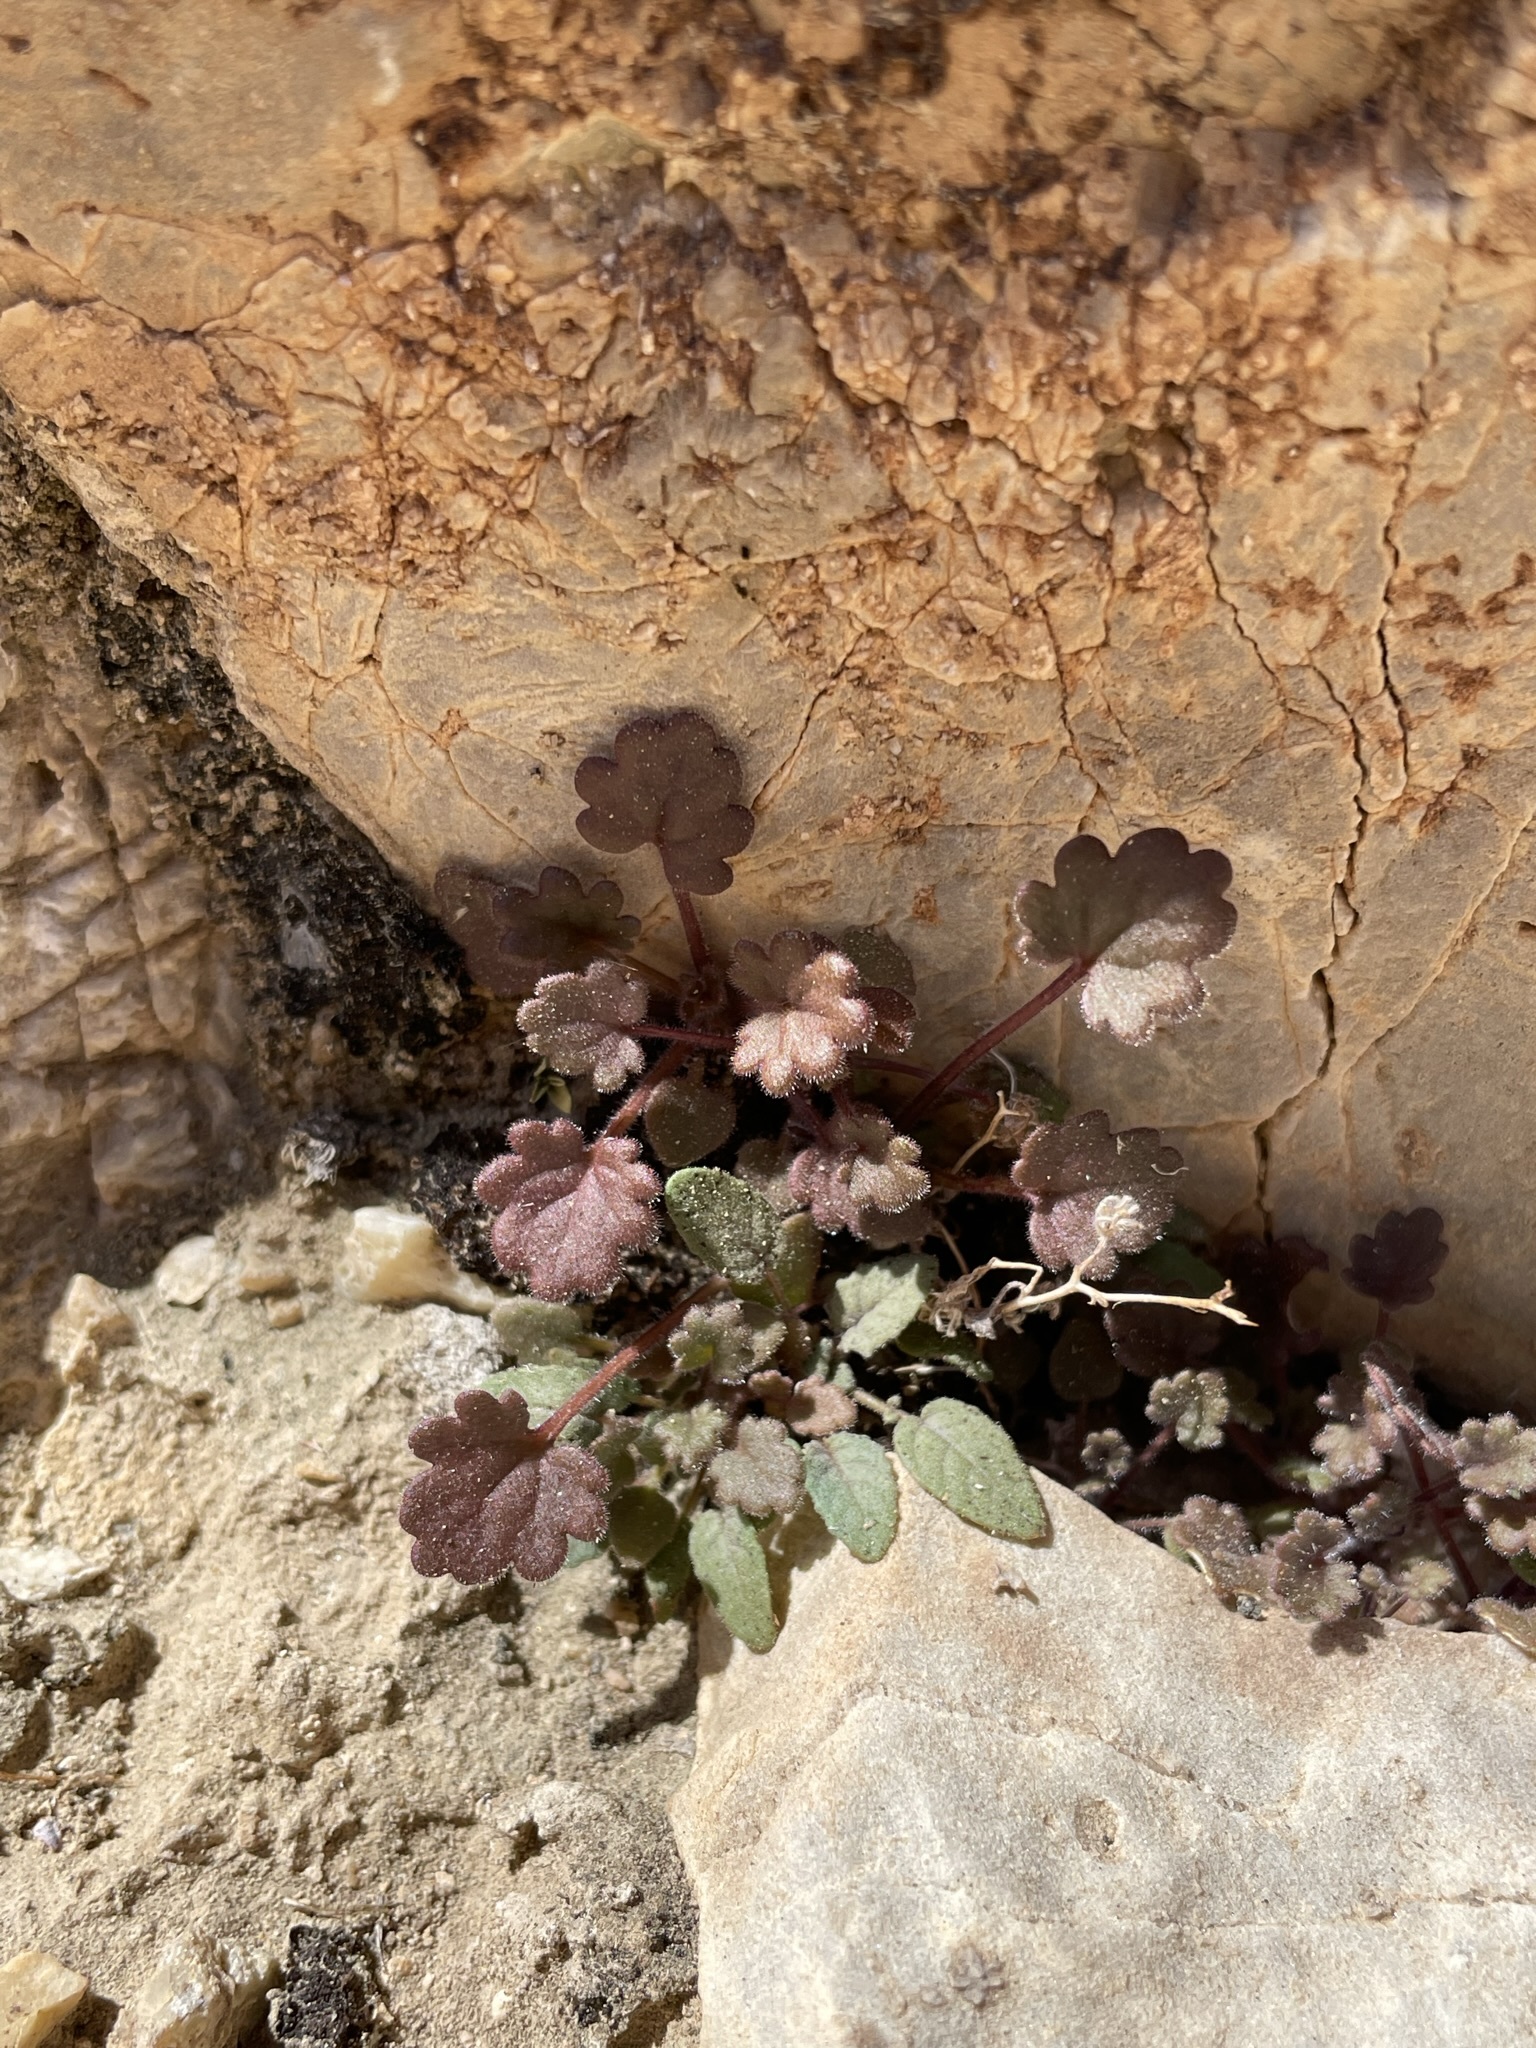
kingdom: Plantae
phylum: Tracheophyta
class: Magnoliopsida
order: Boraginales
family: Hydrophyllaceae
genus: Phacelia
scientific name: Phacelia rotundifolia
